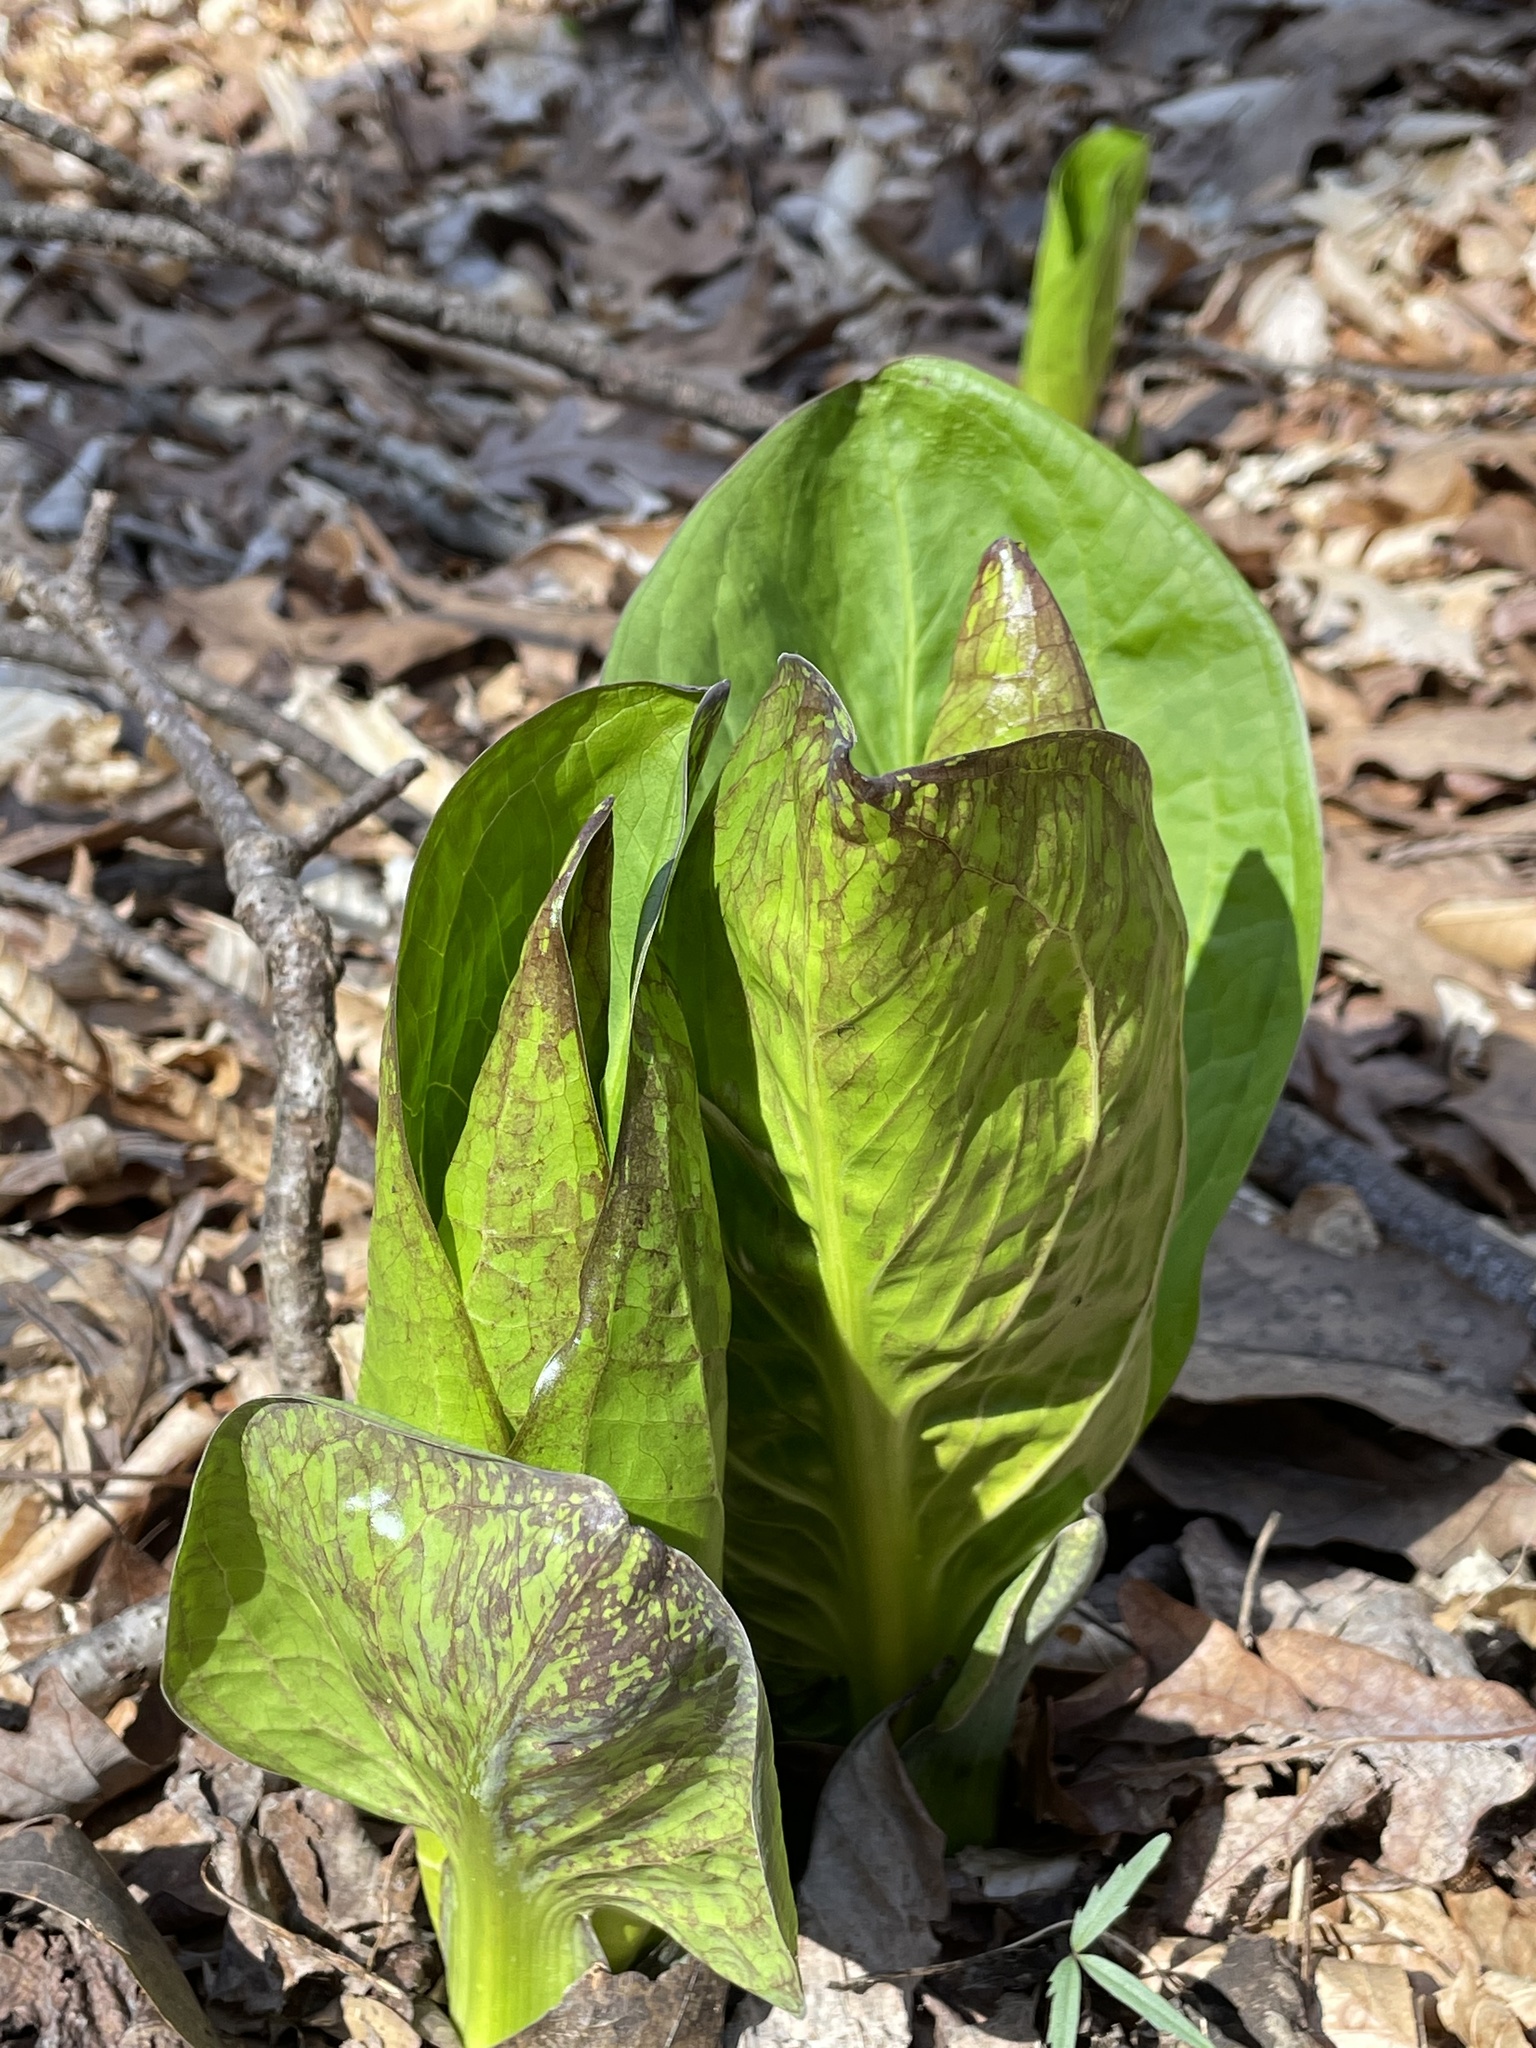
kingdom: Plantae
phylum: Tracheophyta
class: Liliopsida
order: Alismatales
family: Araceae
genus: Symplocarpus
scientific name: Symplocarpus foetidus
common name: Eastern skunk cabbage
